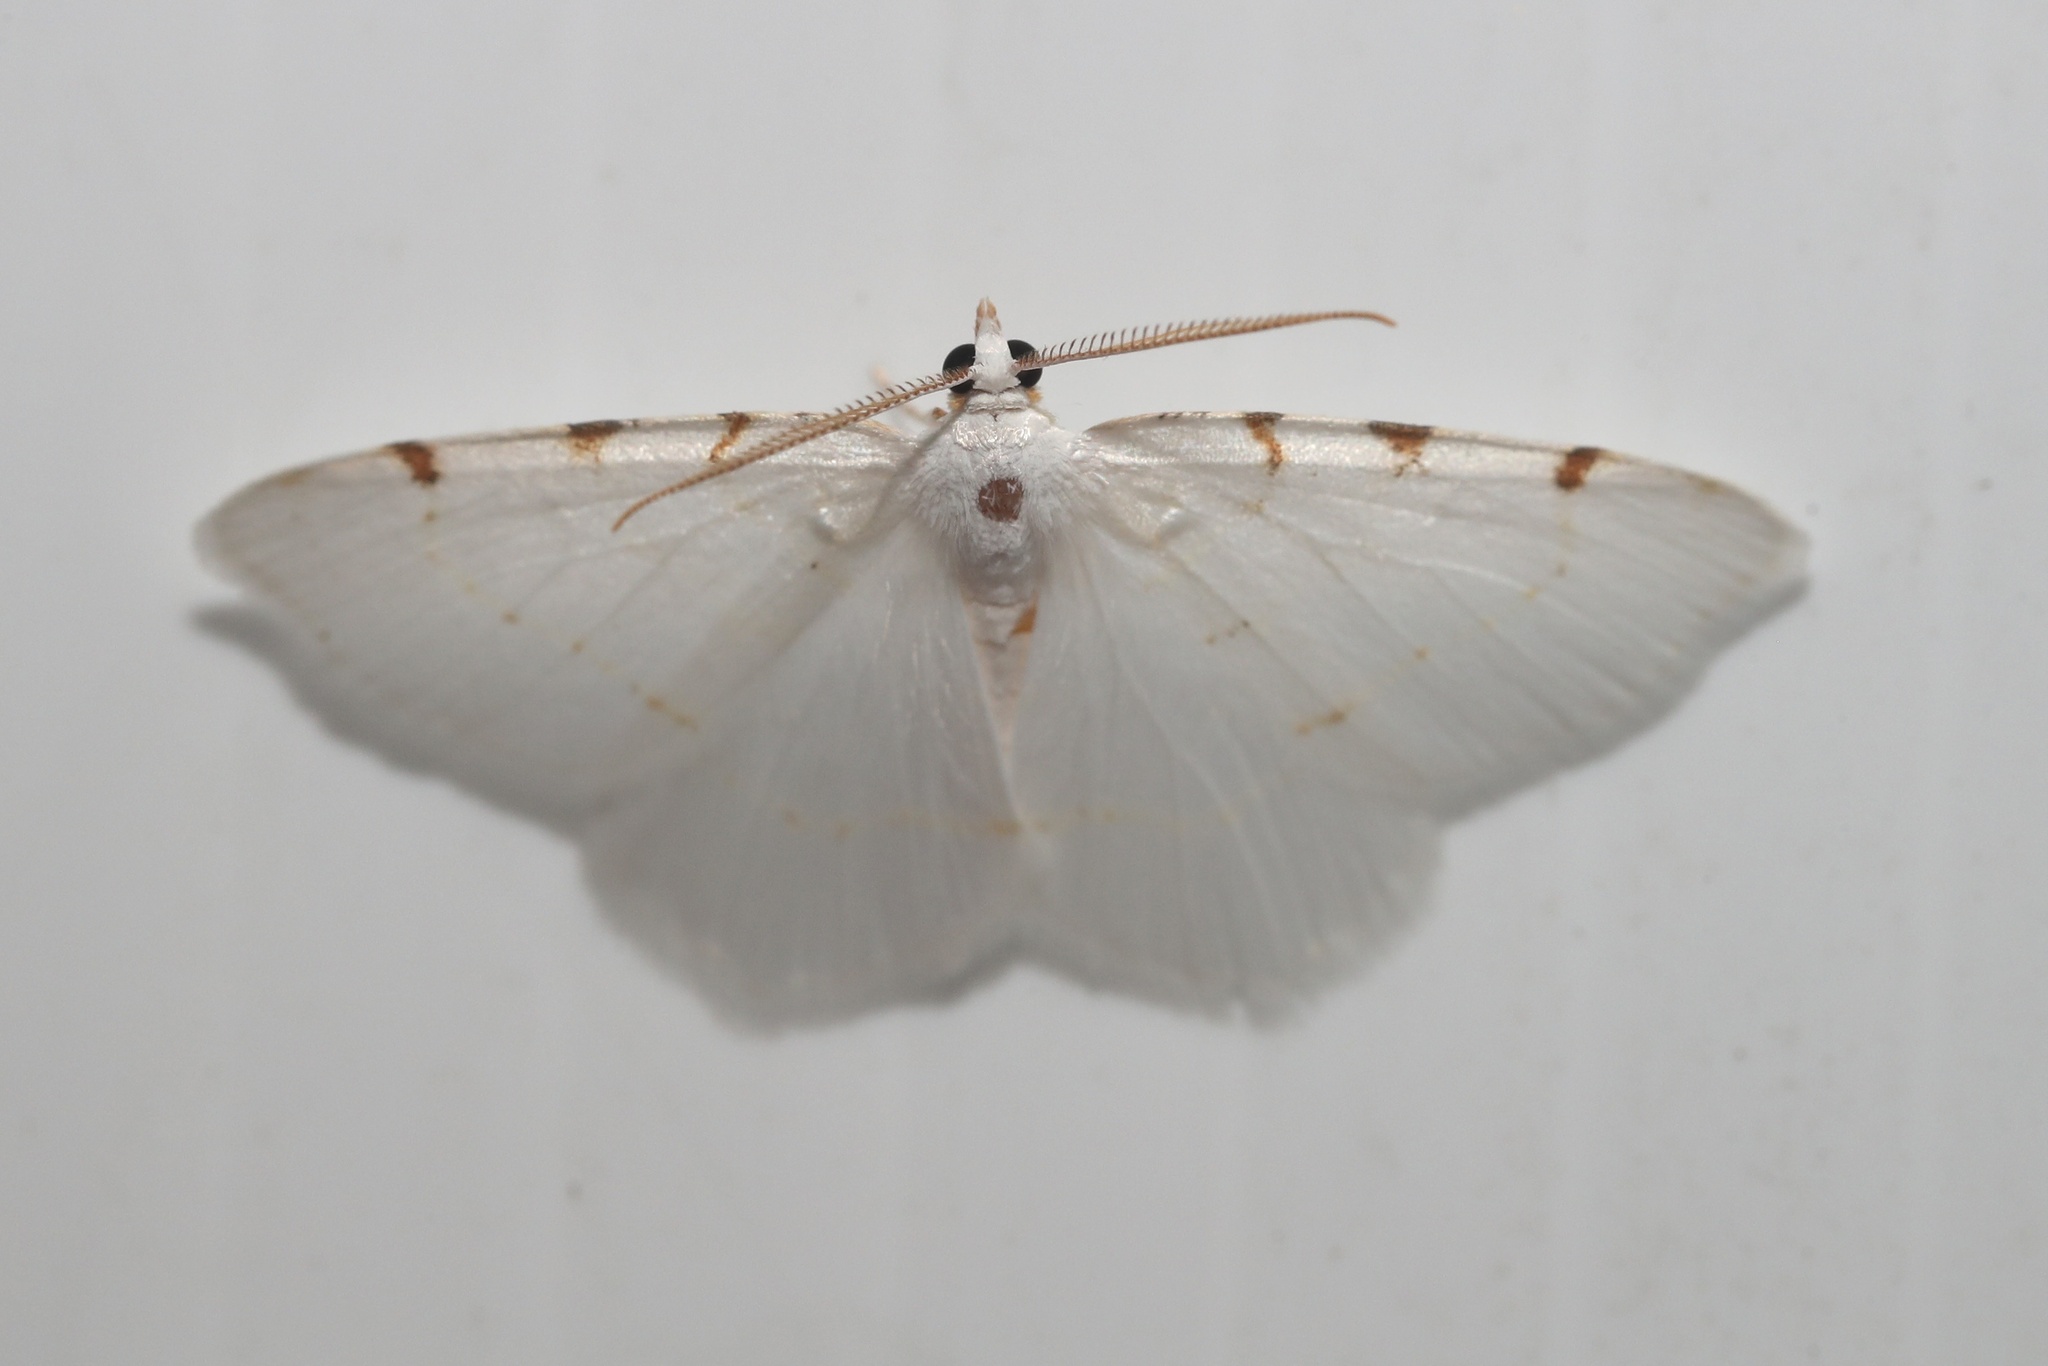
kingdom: Animalia
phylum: Arthropoda
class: Insecta
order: Lepidoptera
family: Geometridae
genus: Macaria
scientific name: Macaria pustularia
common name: Lesser maple spanworm moth
